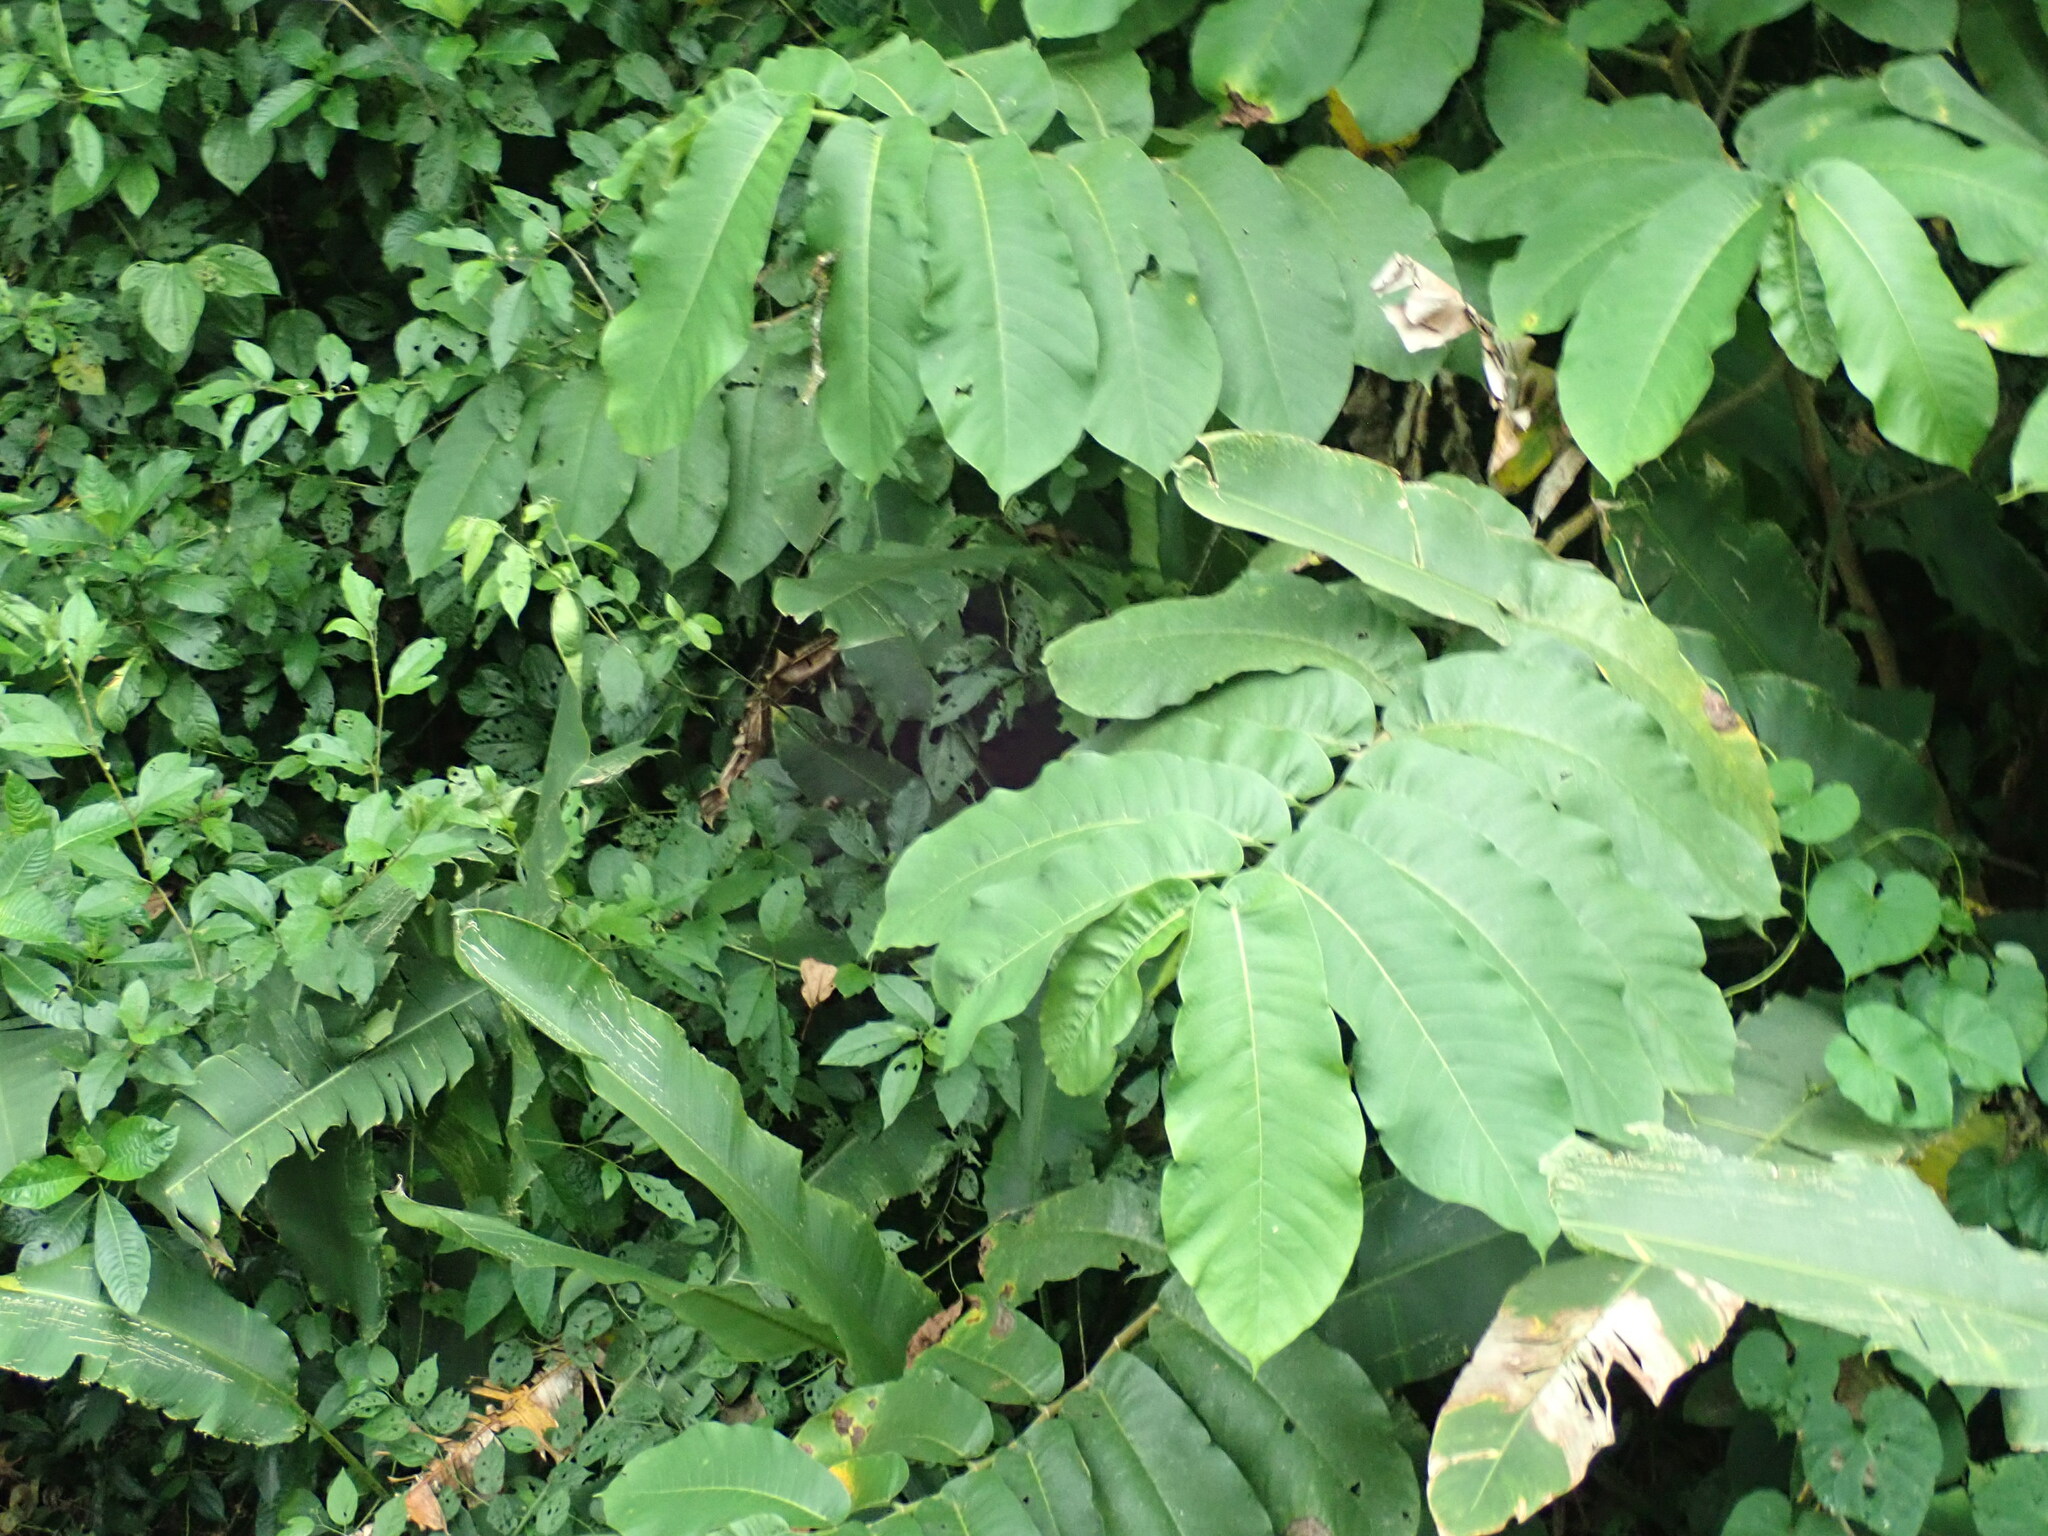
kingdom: Plantae
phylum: Tracheophyta
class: Magnoliopsida
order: Rosales
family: Moraceae
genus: Castilla
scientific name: Castilla elastica
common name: Castilla rubber
